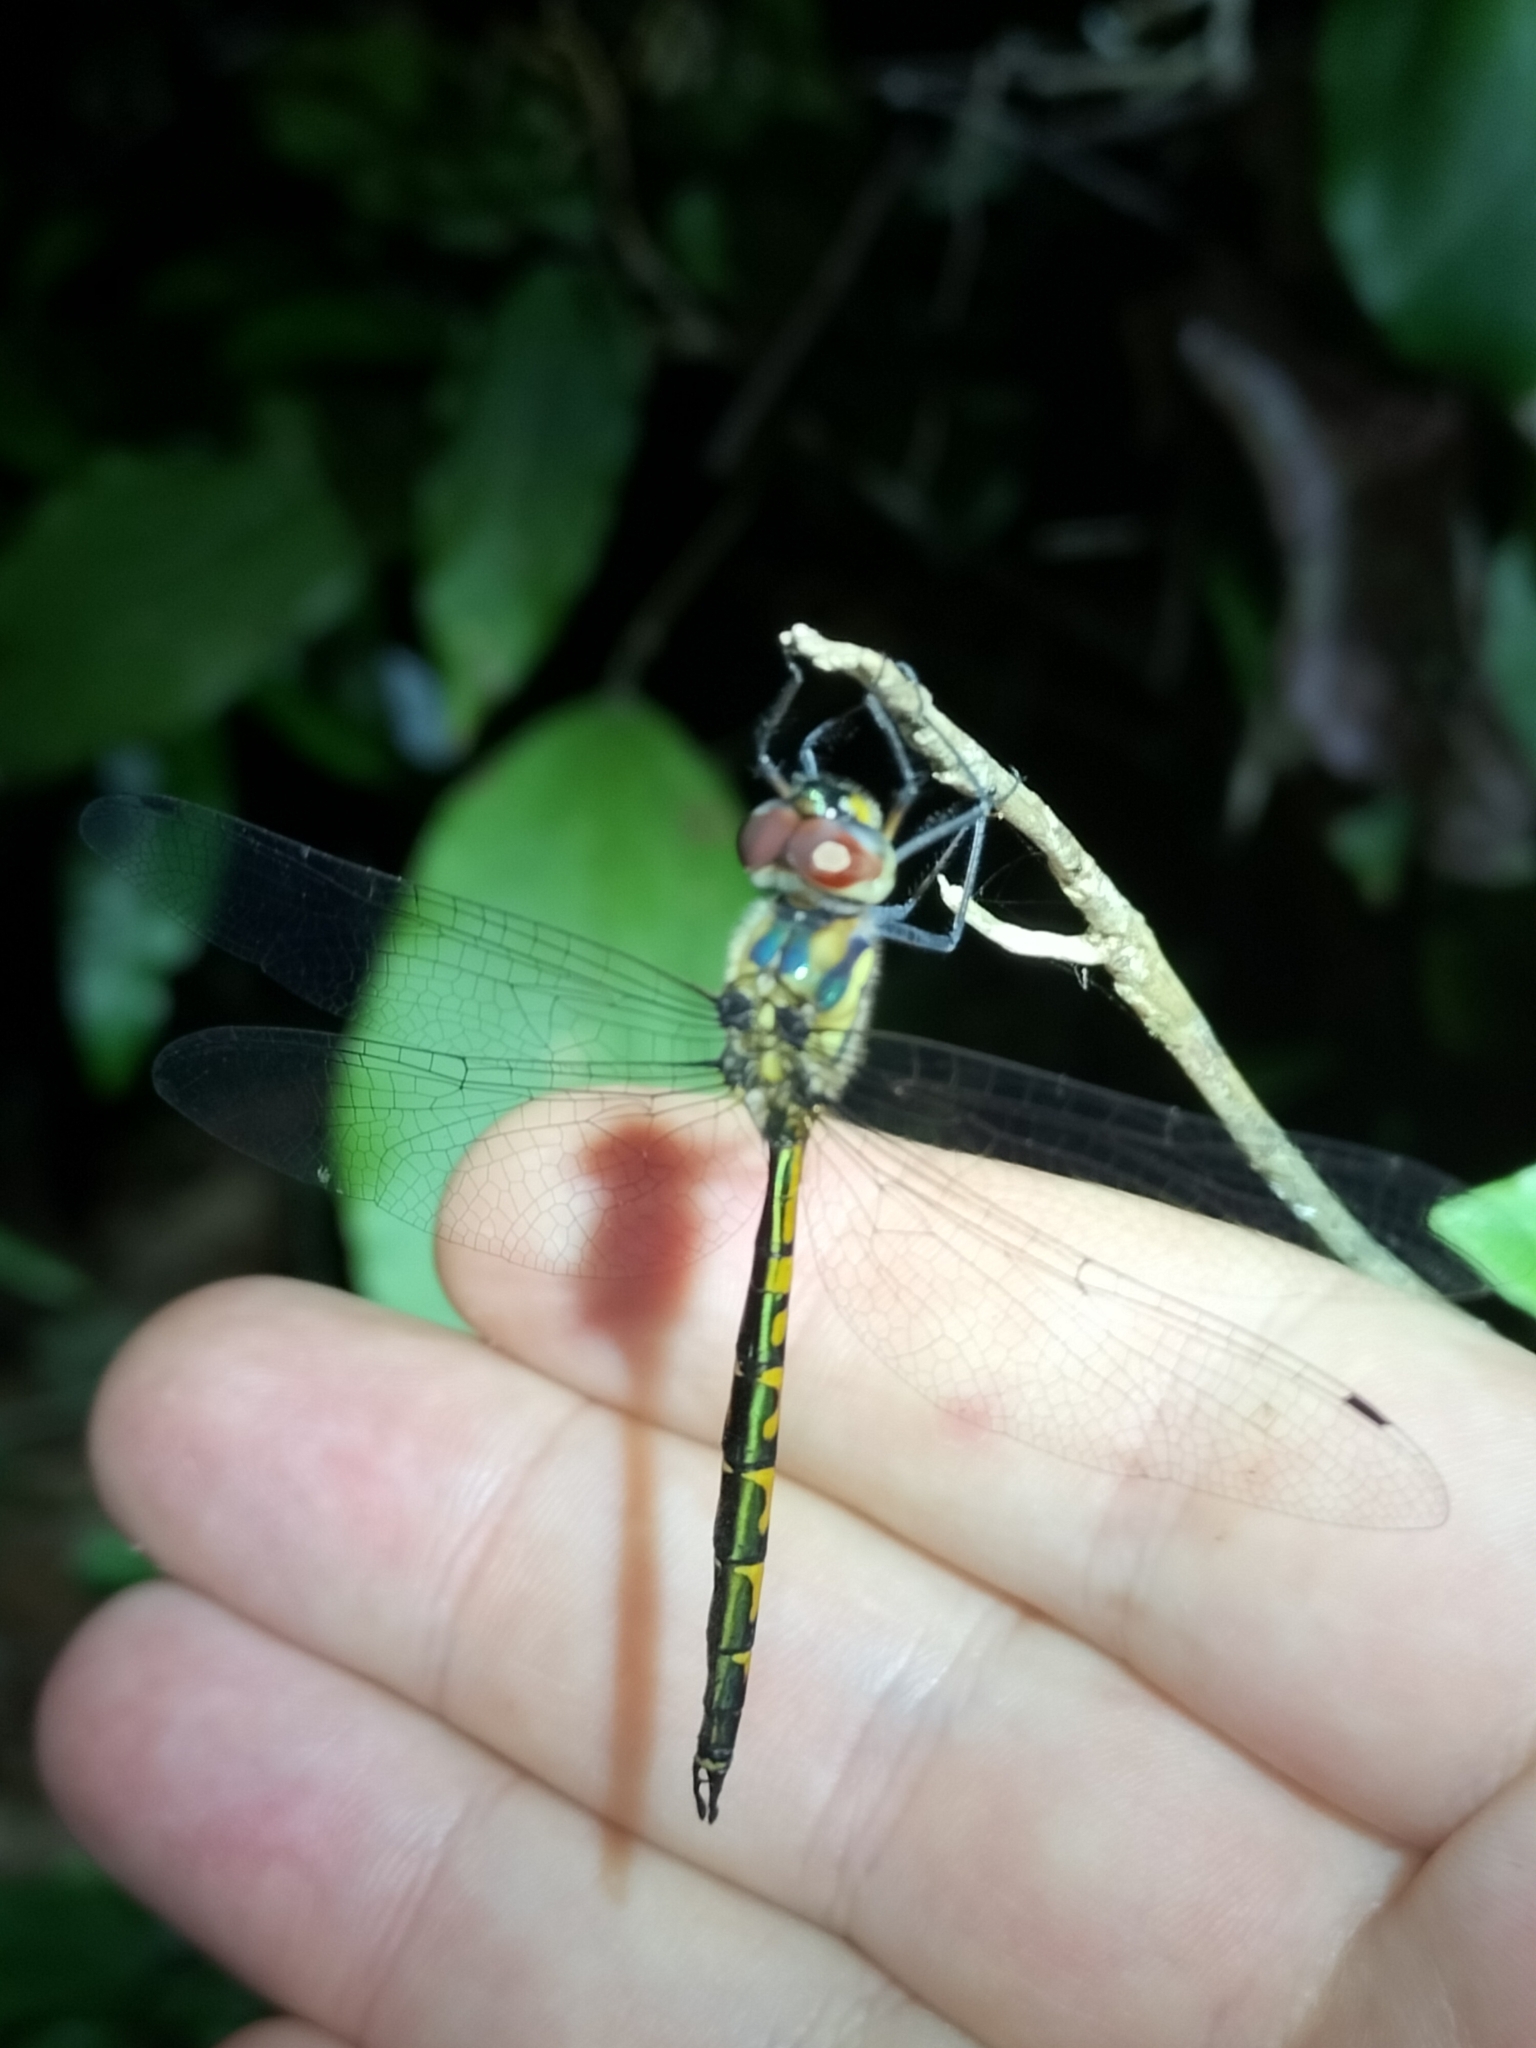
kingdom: Animalia
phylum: Arthropoda
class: Insecta
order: Odonata
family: Corduliidae
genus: Hemicordulia
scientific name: Hemicordulia australiae
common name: Sentry dragonfly
